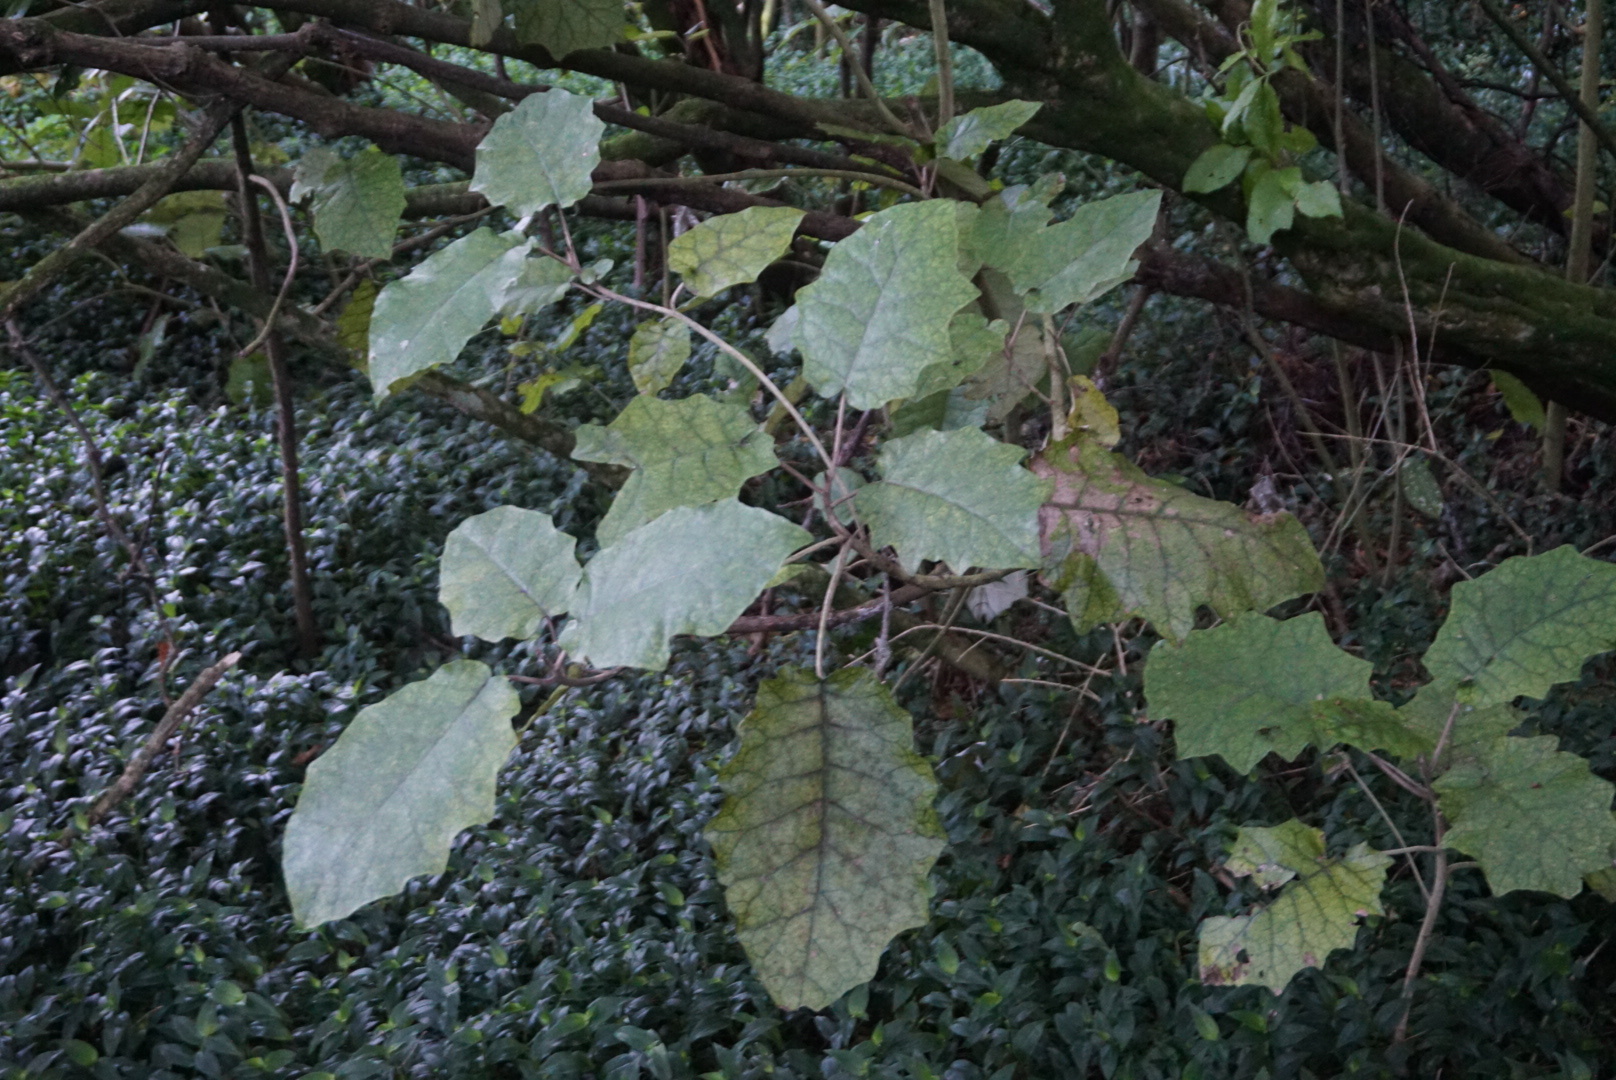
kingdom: Plantae
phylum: Tracheophyta
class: Magnoliopsida
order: Asterales
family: Asteraceae
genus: Brachyglottis
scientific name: Brachyglottis repanda
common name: Hedge ragwort
